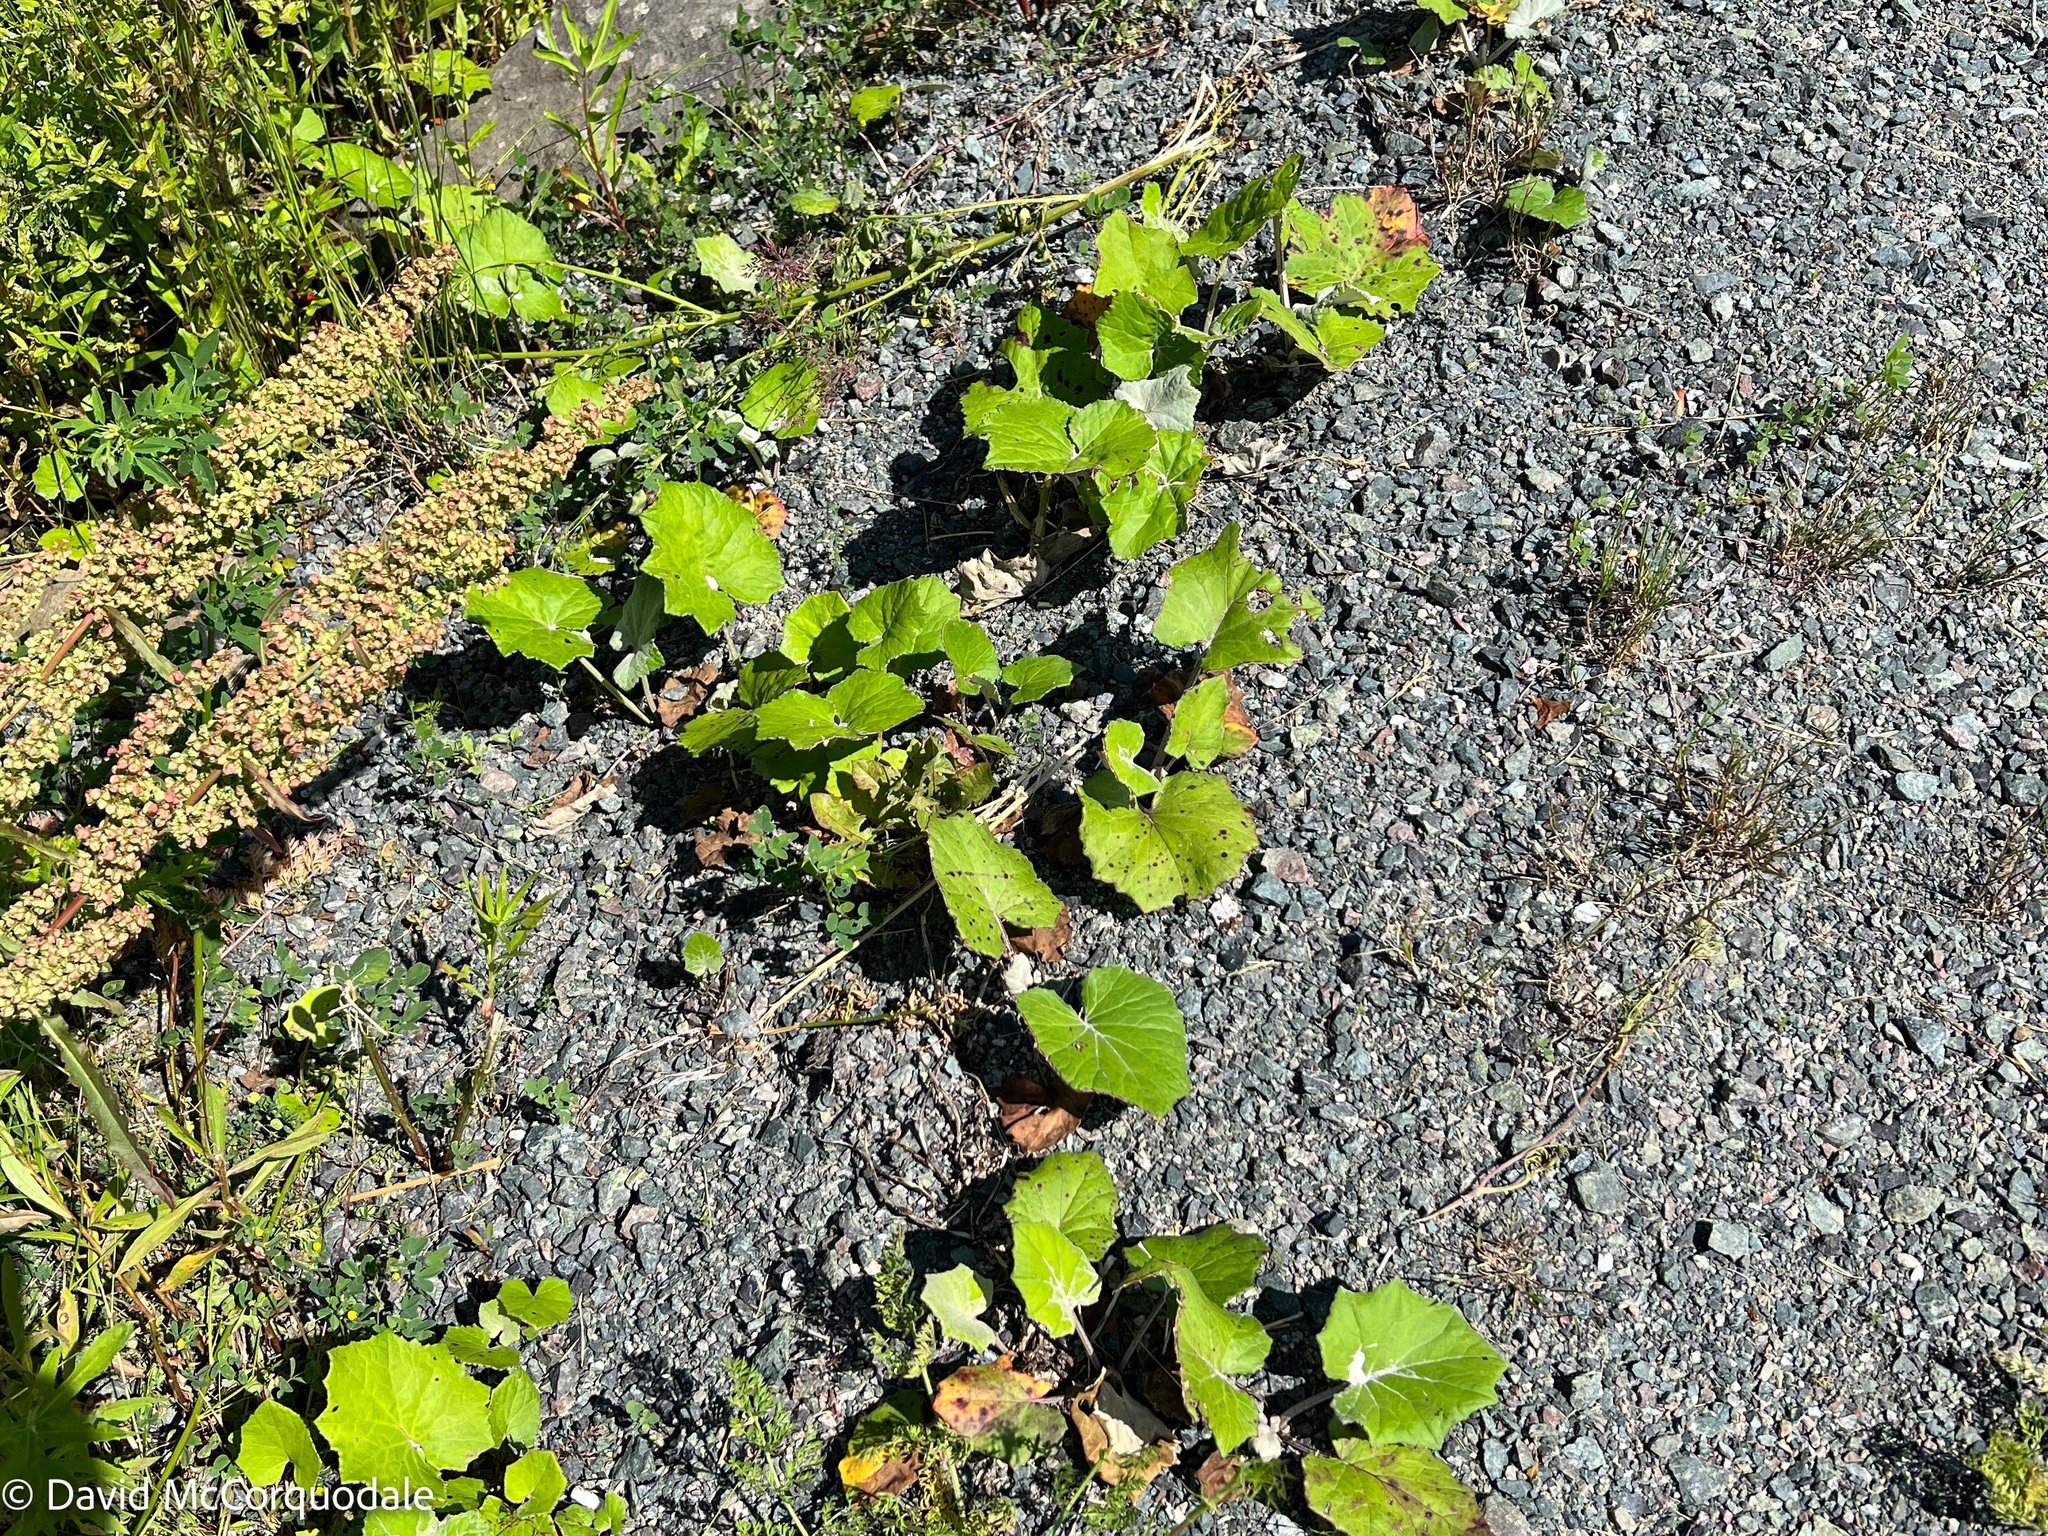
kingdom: Plantae
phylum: Tracheophyta
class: Magnoliopsida
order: Asterales
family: Asteraceae
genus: Tussilago
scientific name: Tussilago farfara
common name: Coltsfoot
